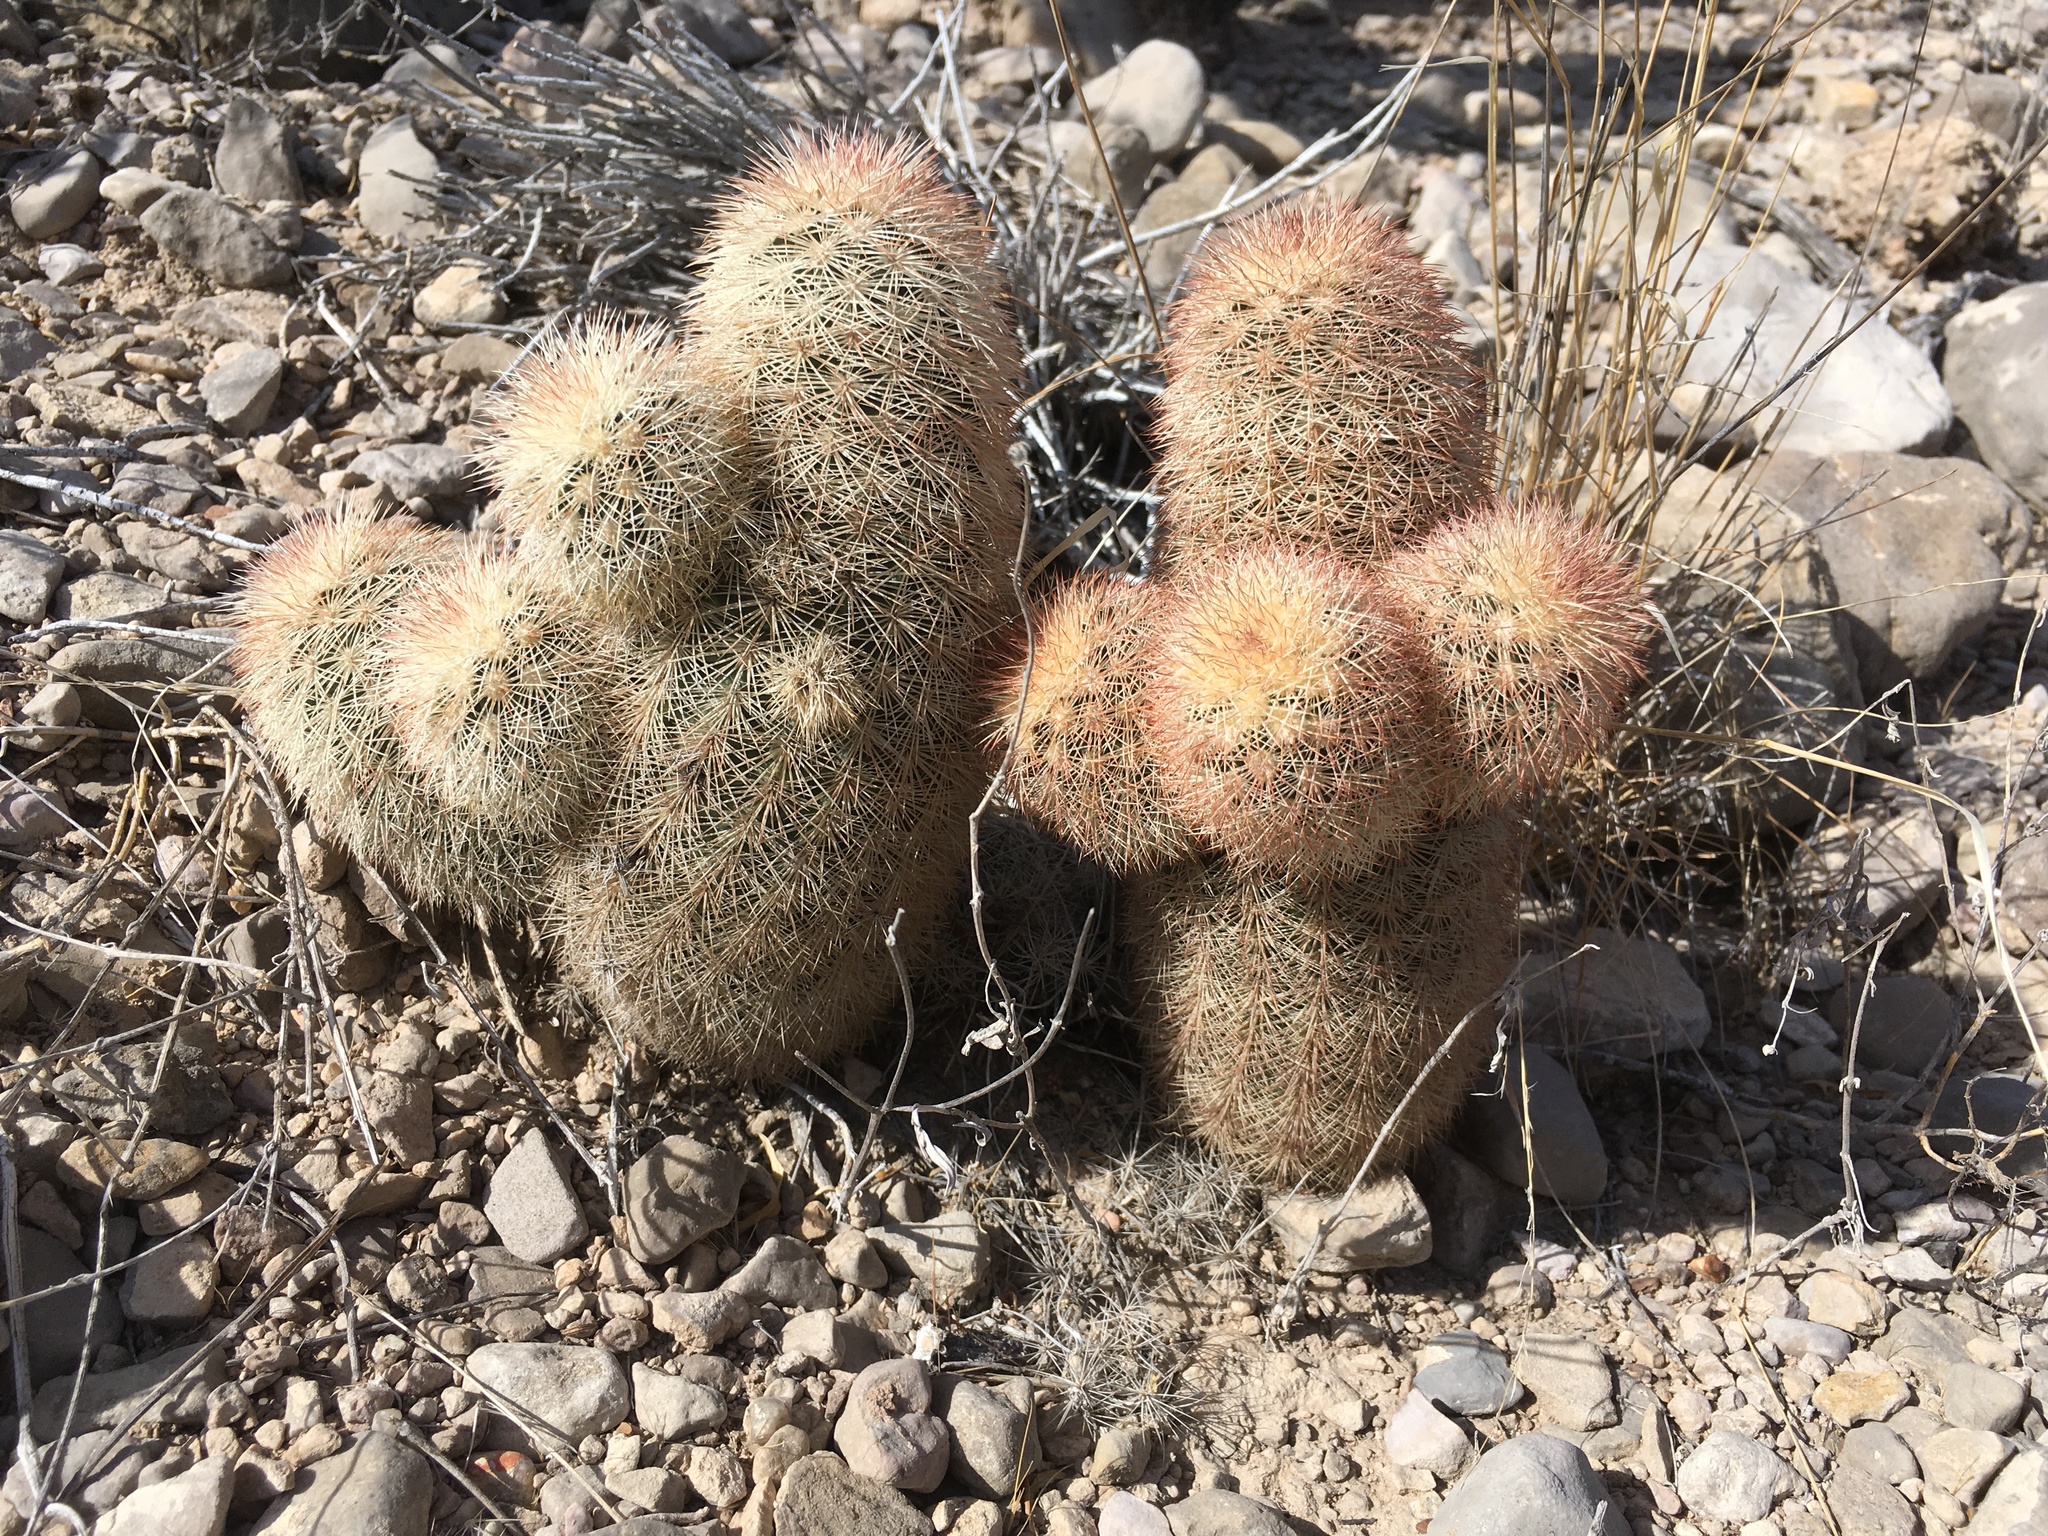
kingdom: Plantae
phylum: Tracheophyta
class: Magnoliopsida
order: Caryophyllales
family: Cactaceae
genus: Echinocereus
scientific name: Echinocereus dasyacanthus
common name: Spiny hedgehog cactus
